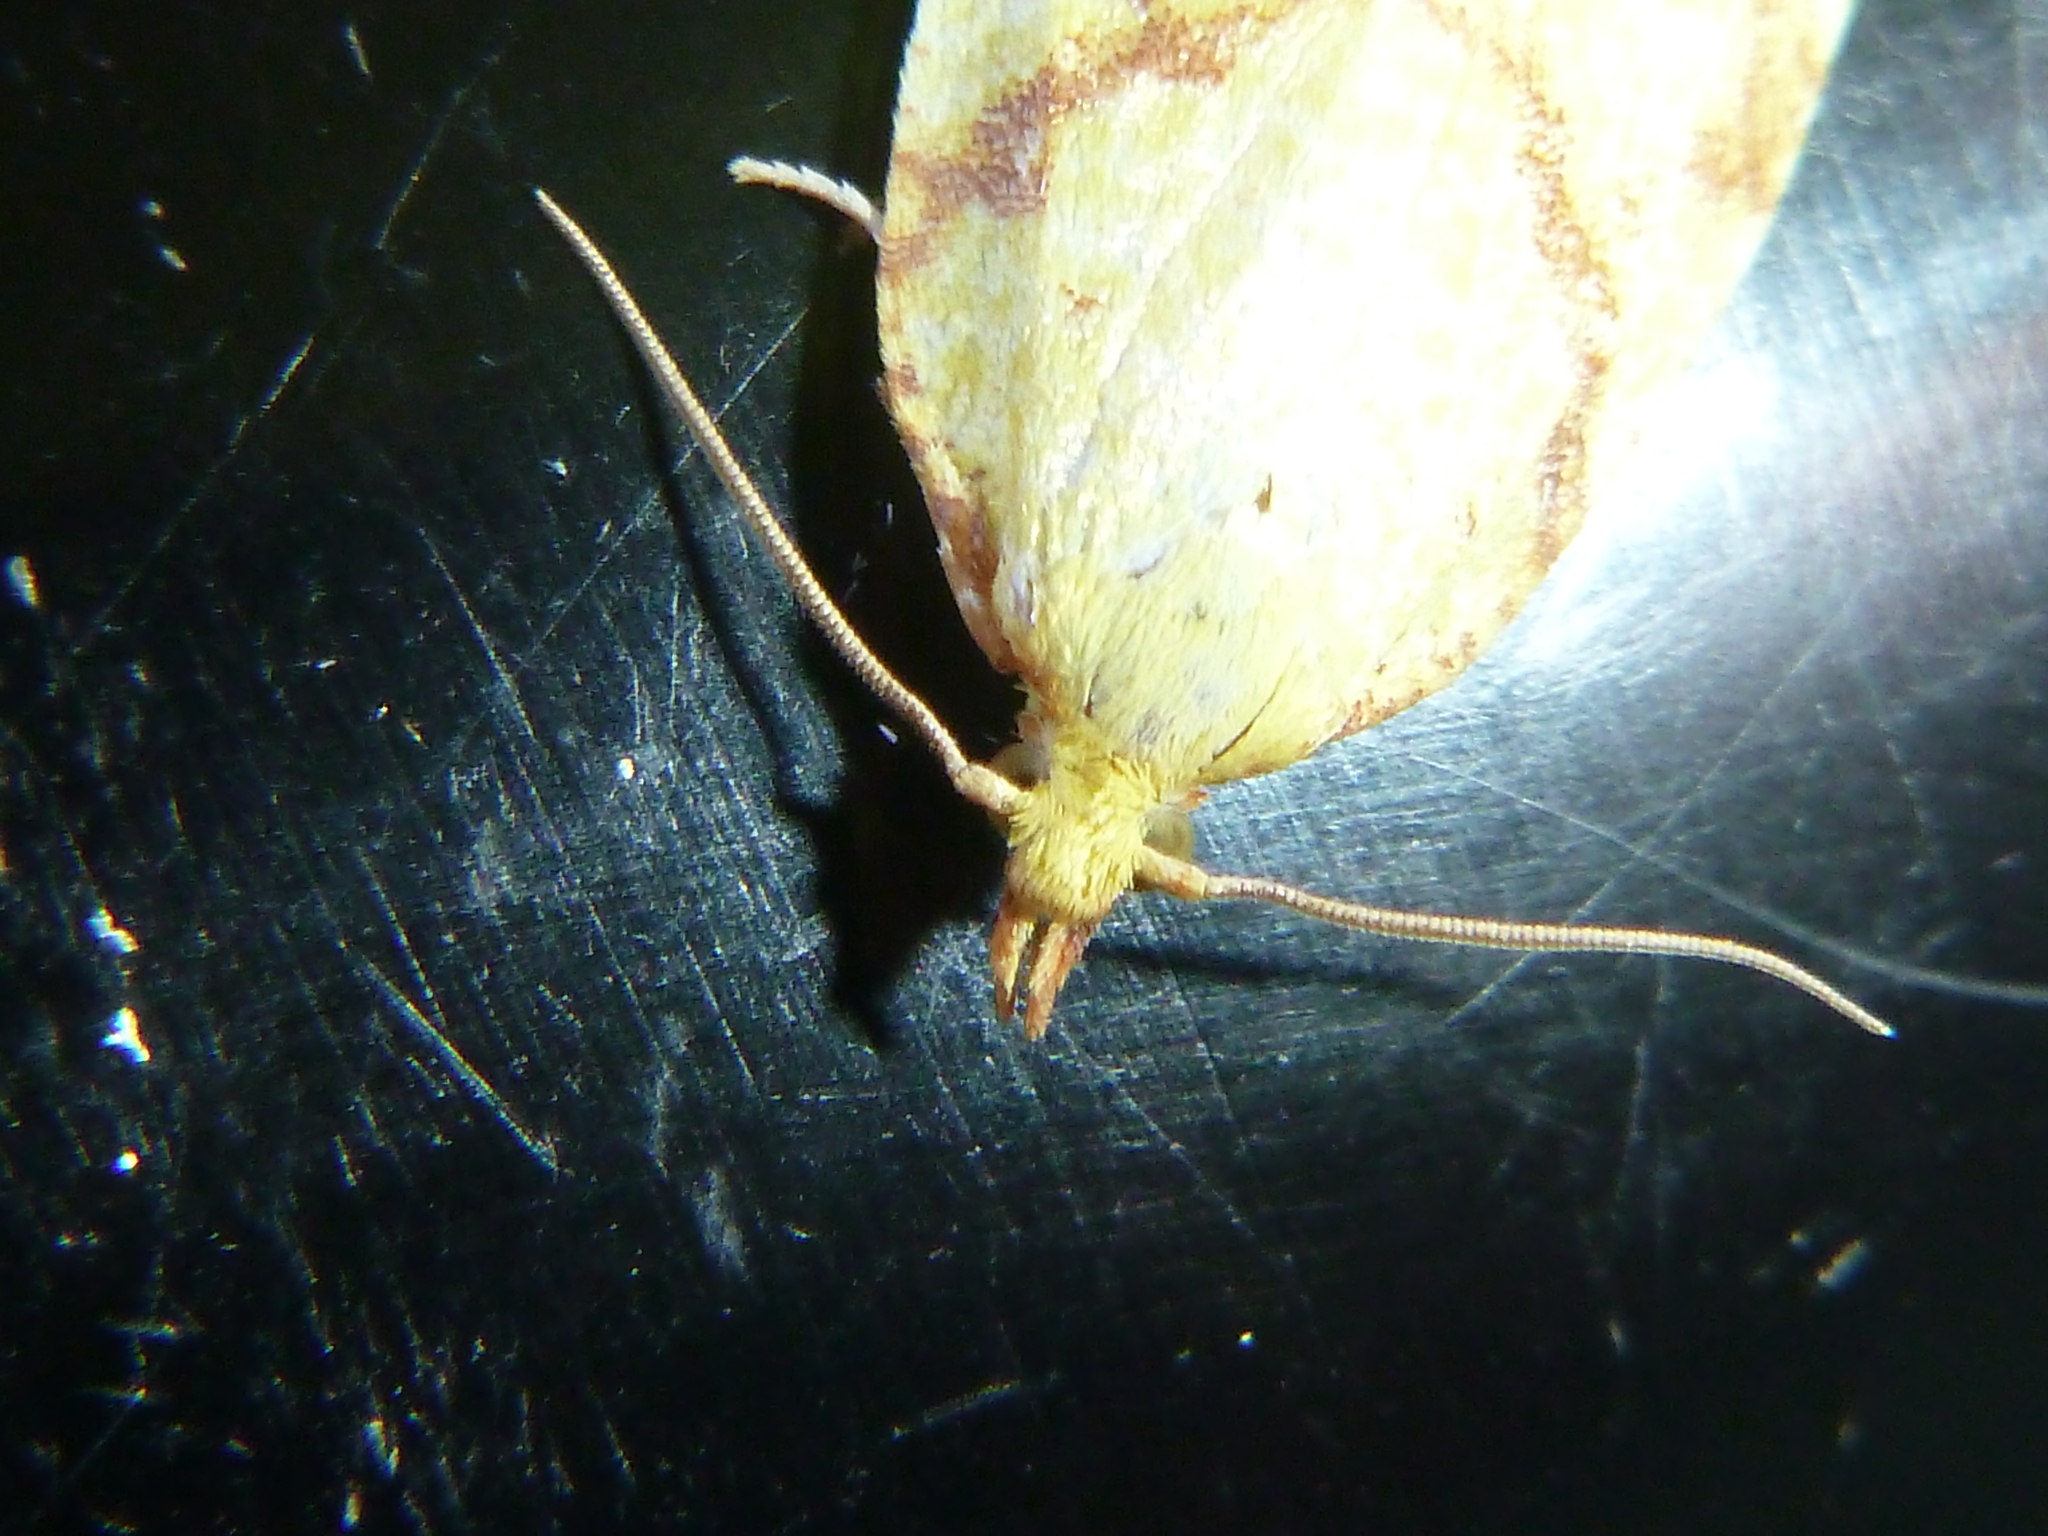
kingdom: Animalia
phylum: Arthropoda
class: Insecta
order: Lepidoptera
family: Tortricidae
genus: Cenopis
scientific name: Cenopis pettitana
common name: Maple-basswood leafroller moth
